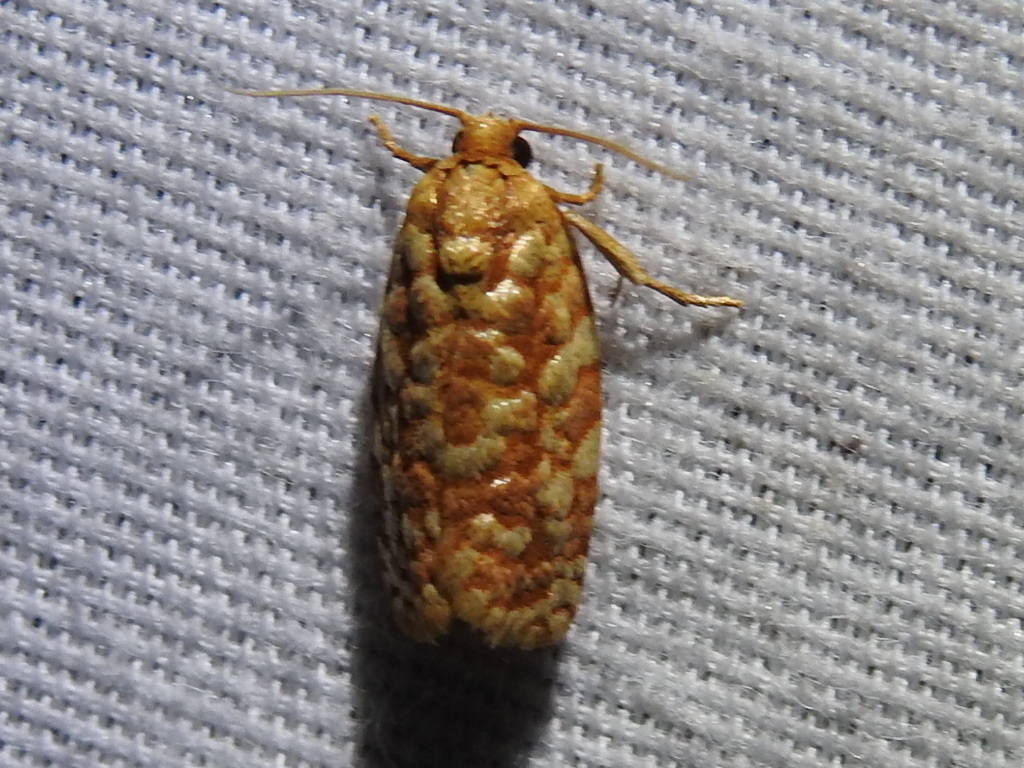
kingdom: Animalia
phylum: Arthropoda
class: Insecta
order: Lepidoptera
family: Tortricidae
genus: Choristoneura
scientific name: Choristoneura houstonana
